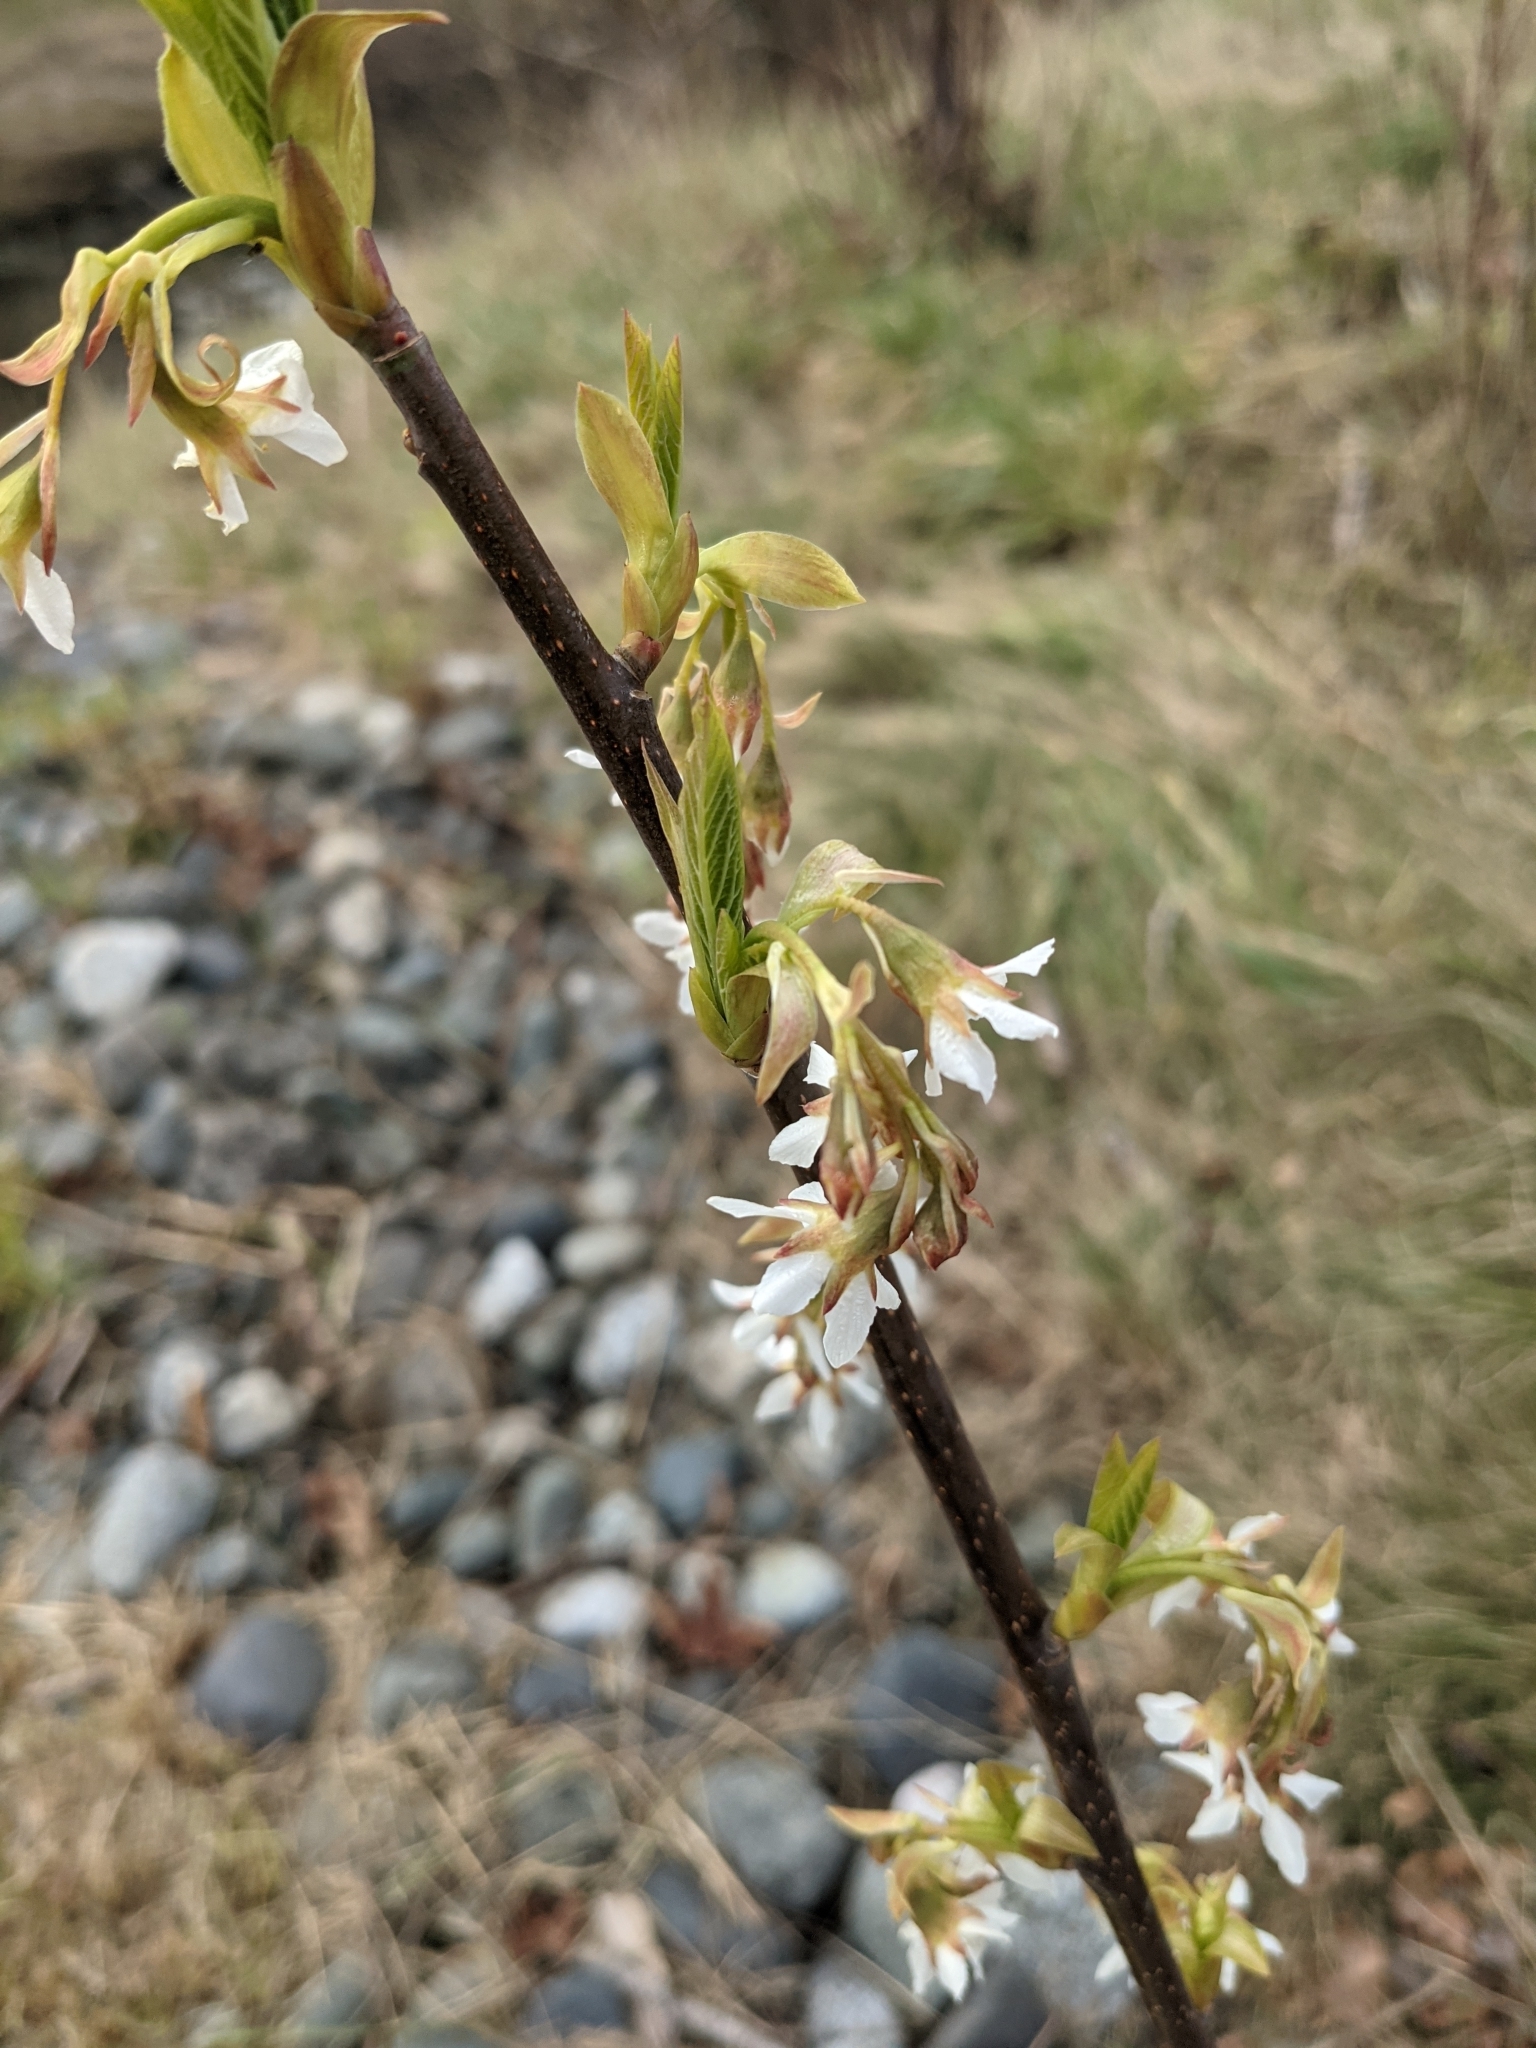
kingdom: Plantae
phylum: Tracheophyta
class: Magnoliopsida
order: Rosales
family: Rosaceae
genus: Oemleria
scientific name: Oemleria cerasiformis
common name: Osoberry
